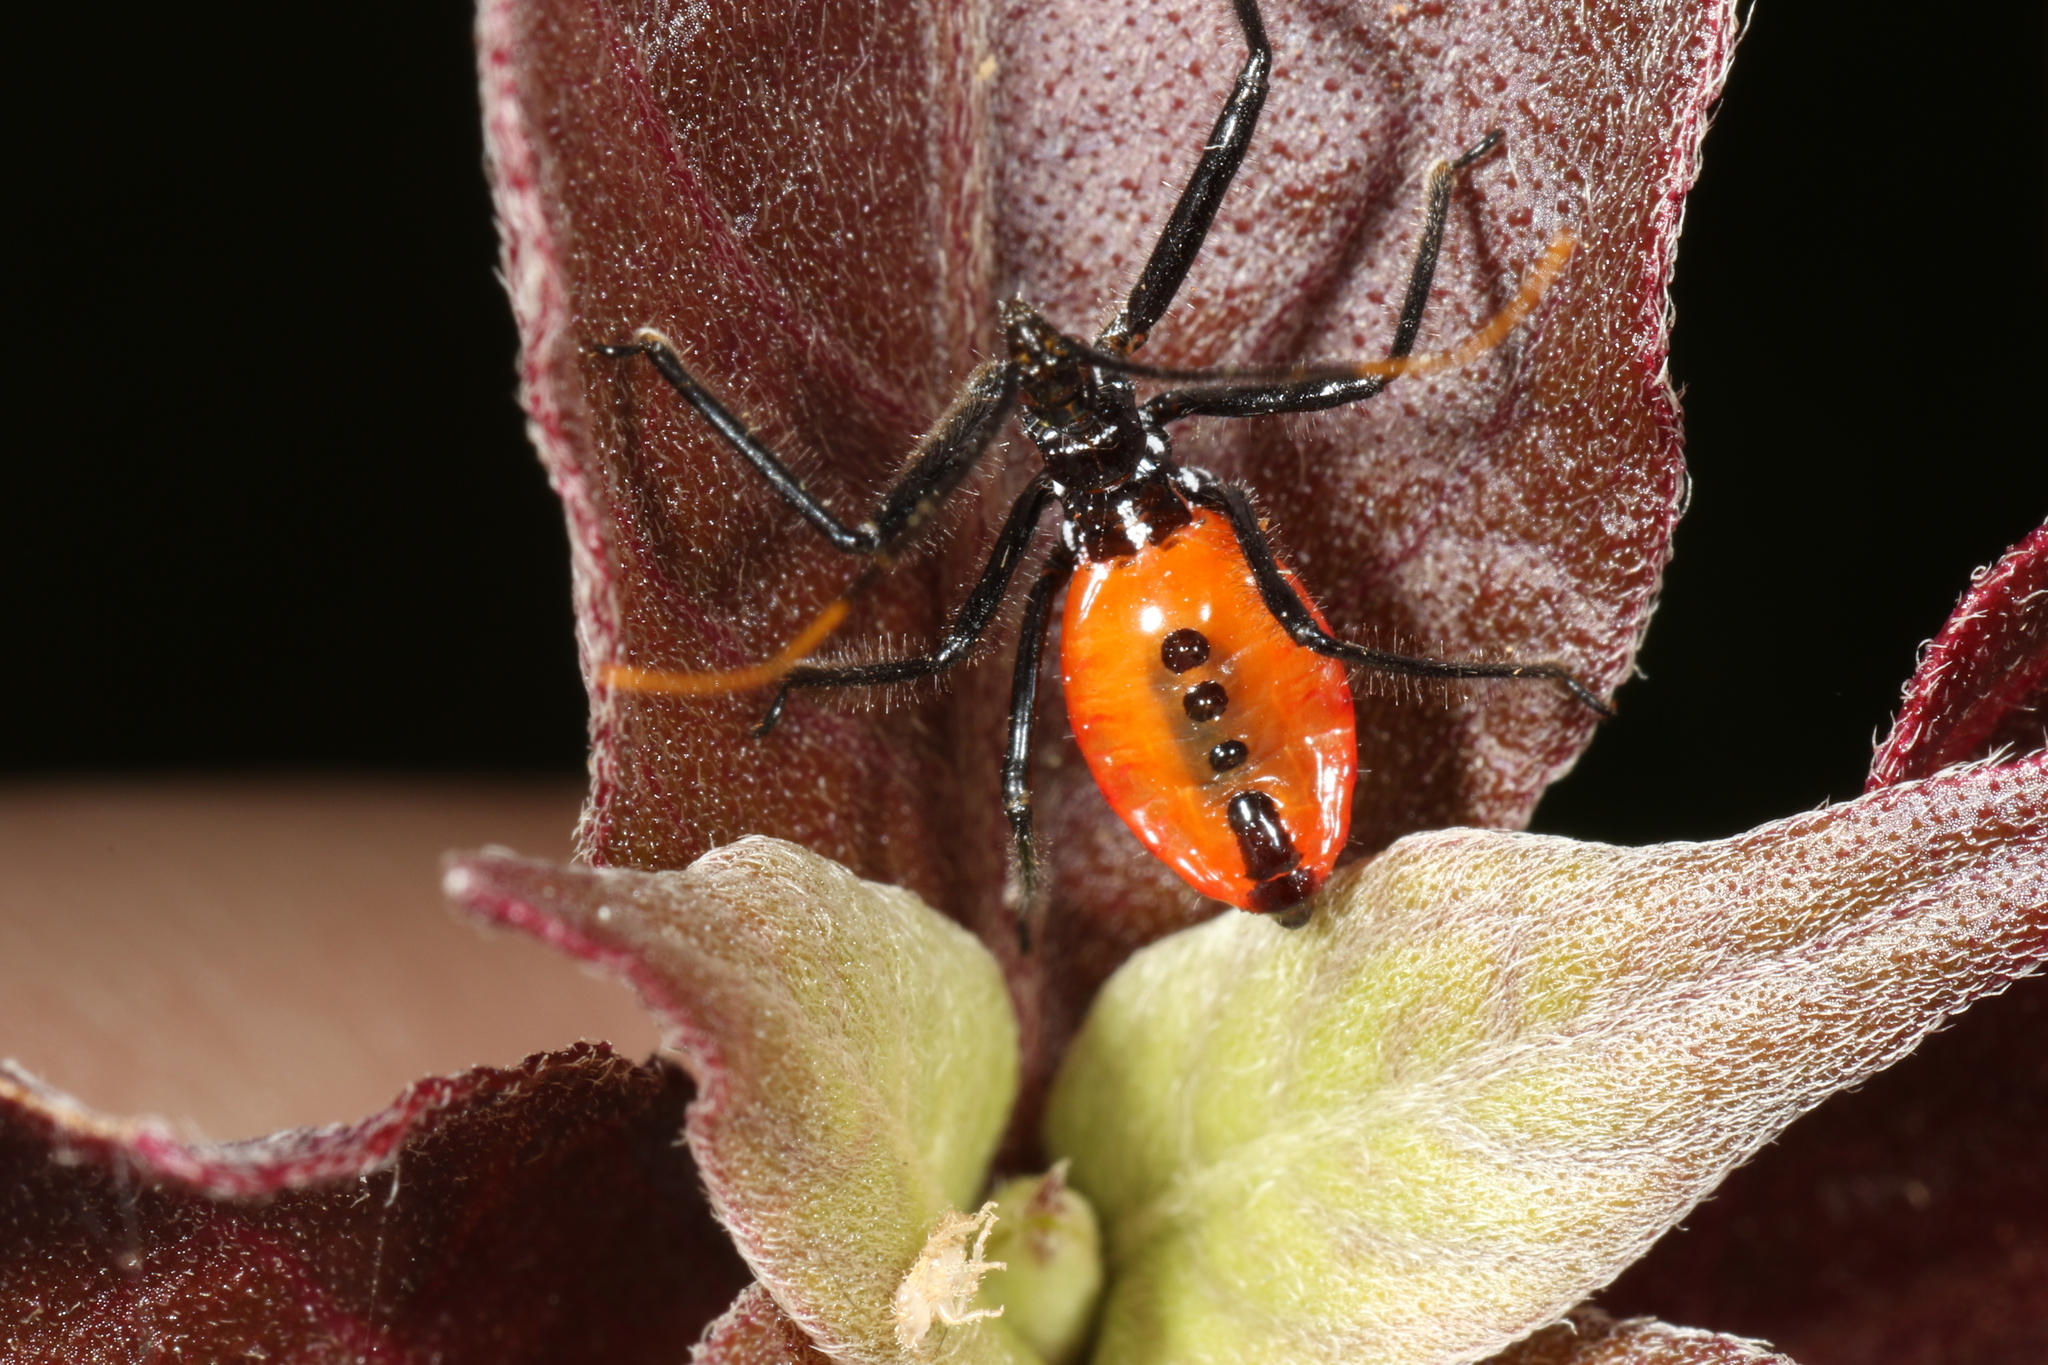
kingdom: Animalia
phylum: Arthropoda
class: Insecta
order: Hemiptera
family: Reduviidae
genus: Arilus
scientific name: Arilus carinatus
